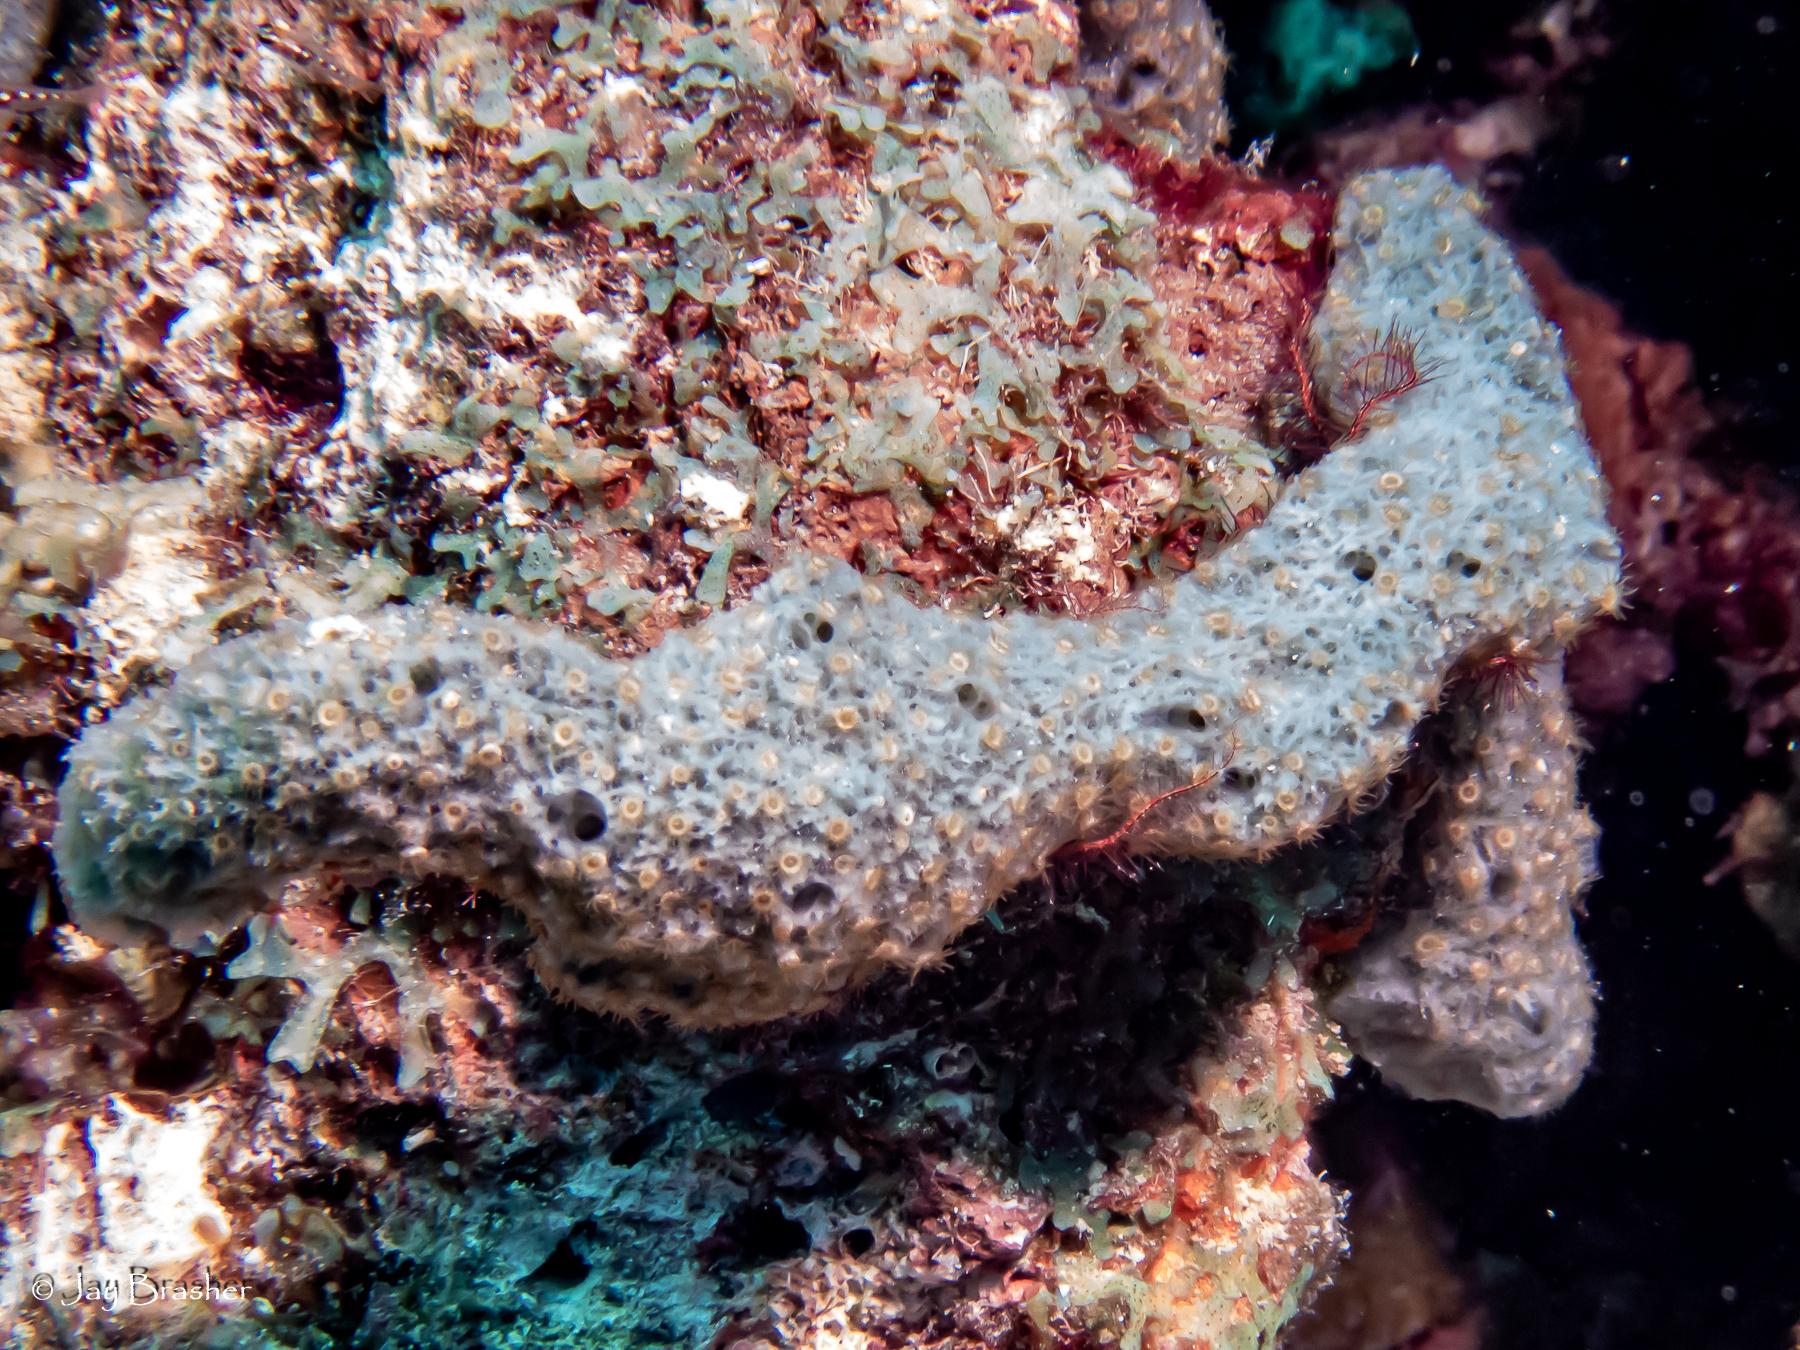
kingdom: Animalia
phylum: Cnidaria
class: Anthozoa
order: Zoantharia
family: Parazoanthidae
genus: Umimayanthus
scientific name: Umimayanthus parasiticus
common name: Sponge zoanthid
